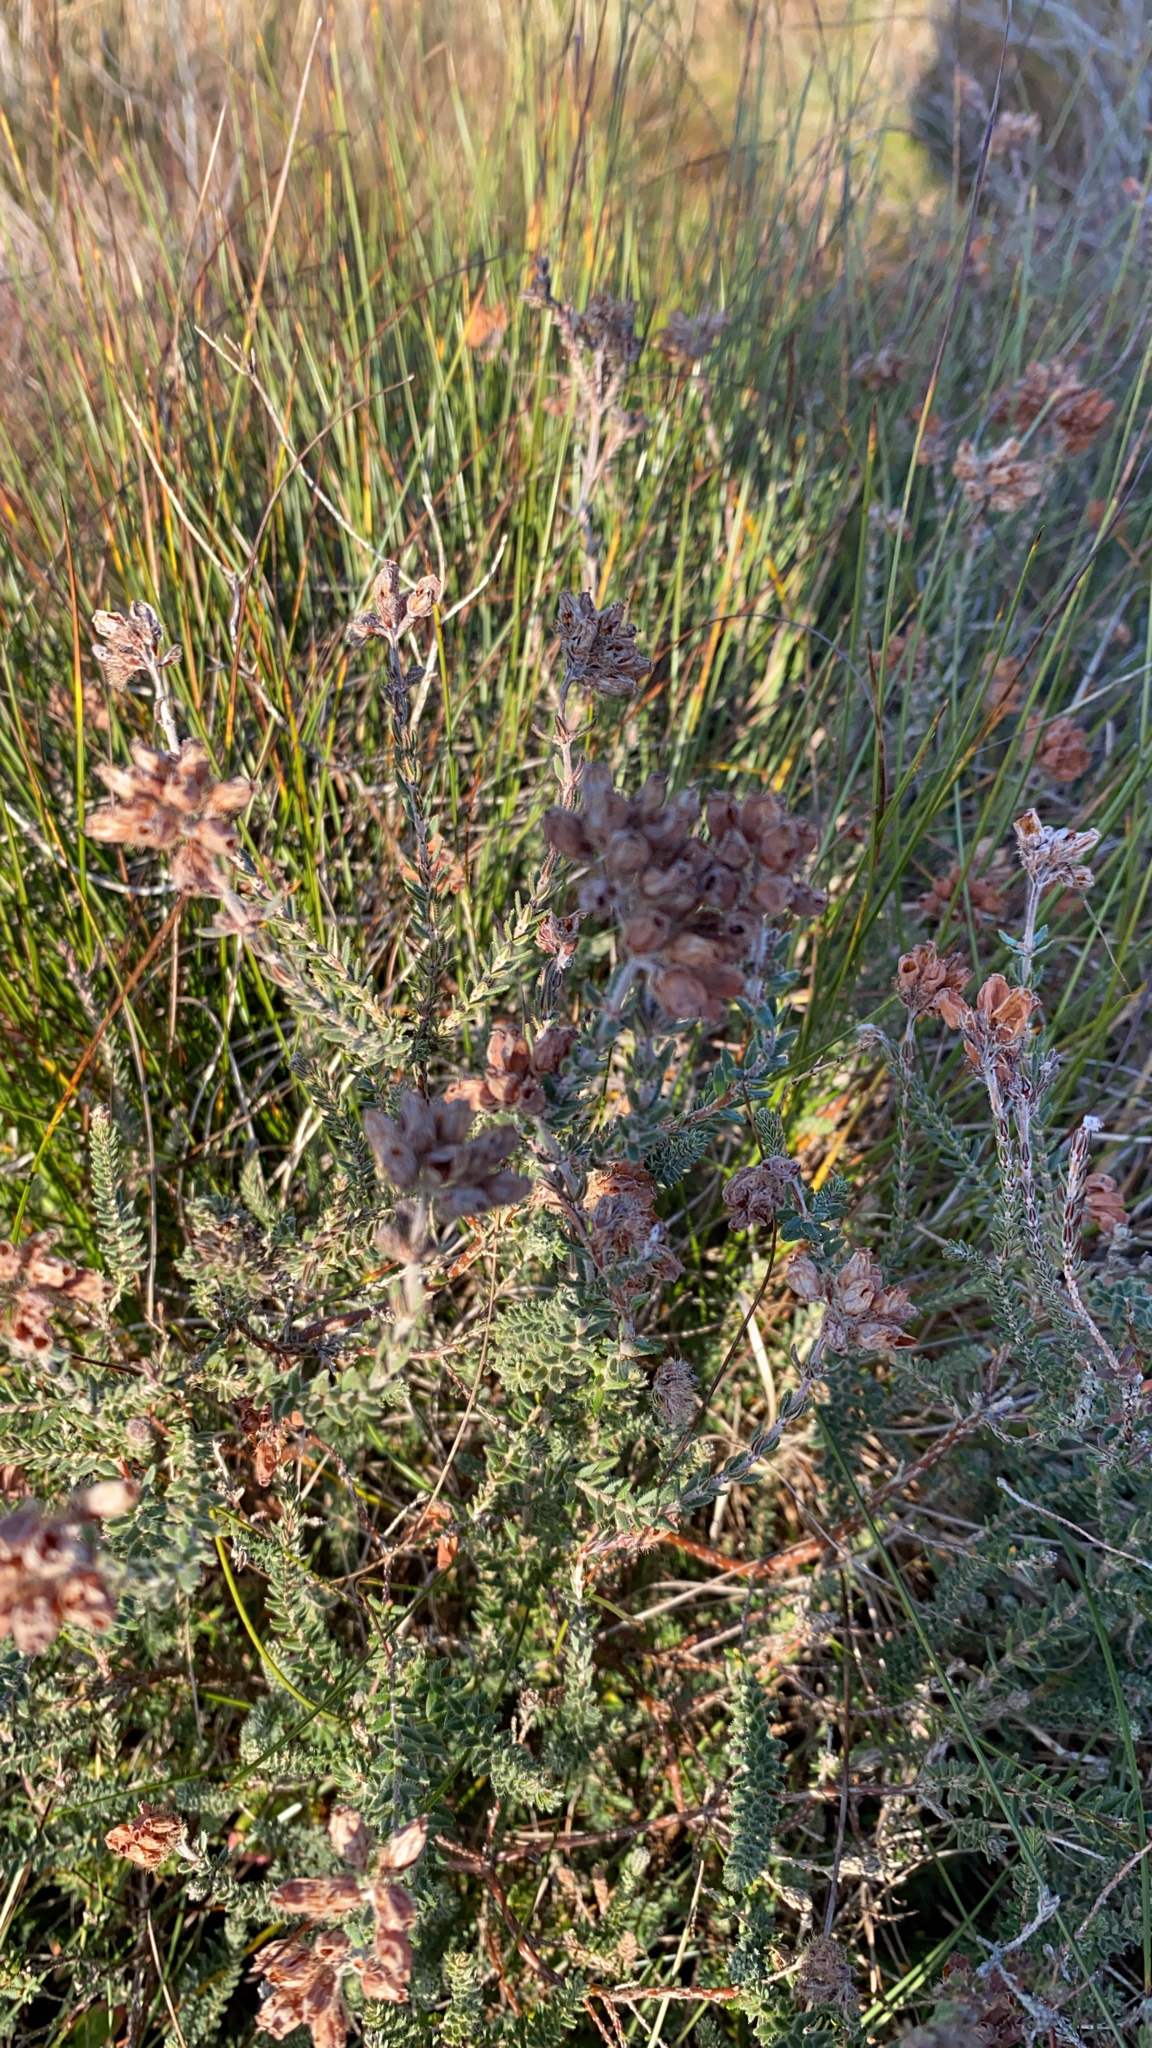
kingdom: Plantae
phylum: Tracheophyta
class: Magnoliopsida
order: Ericales
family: Ericaceae
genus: Erica
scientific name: Erica tetralix
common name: Cross-leaved heath
